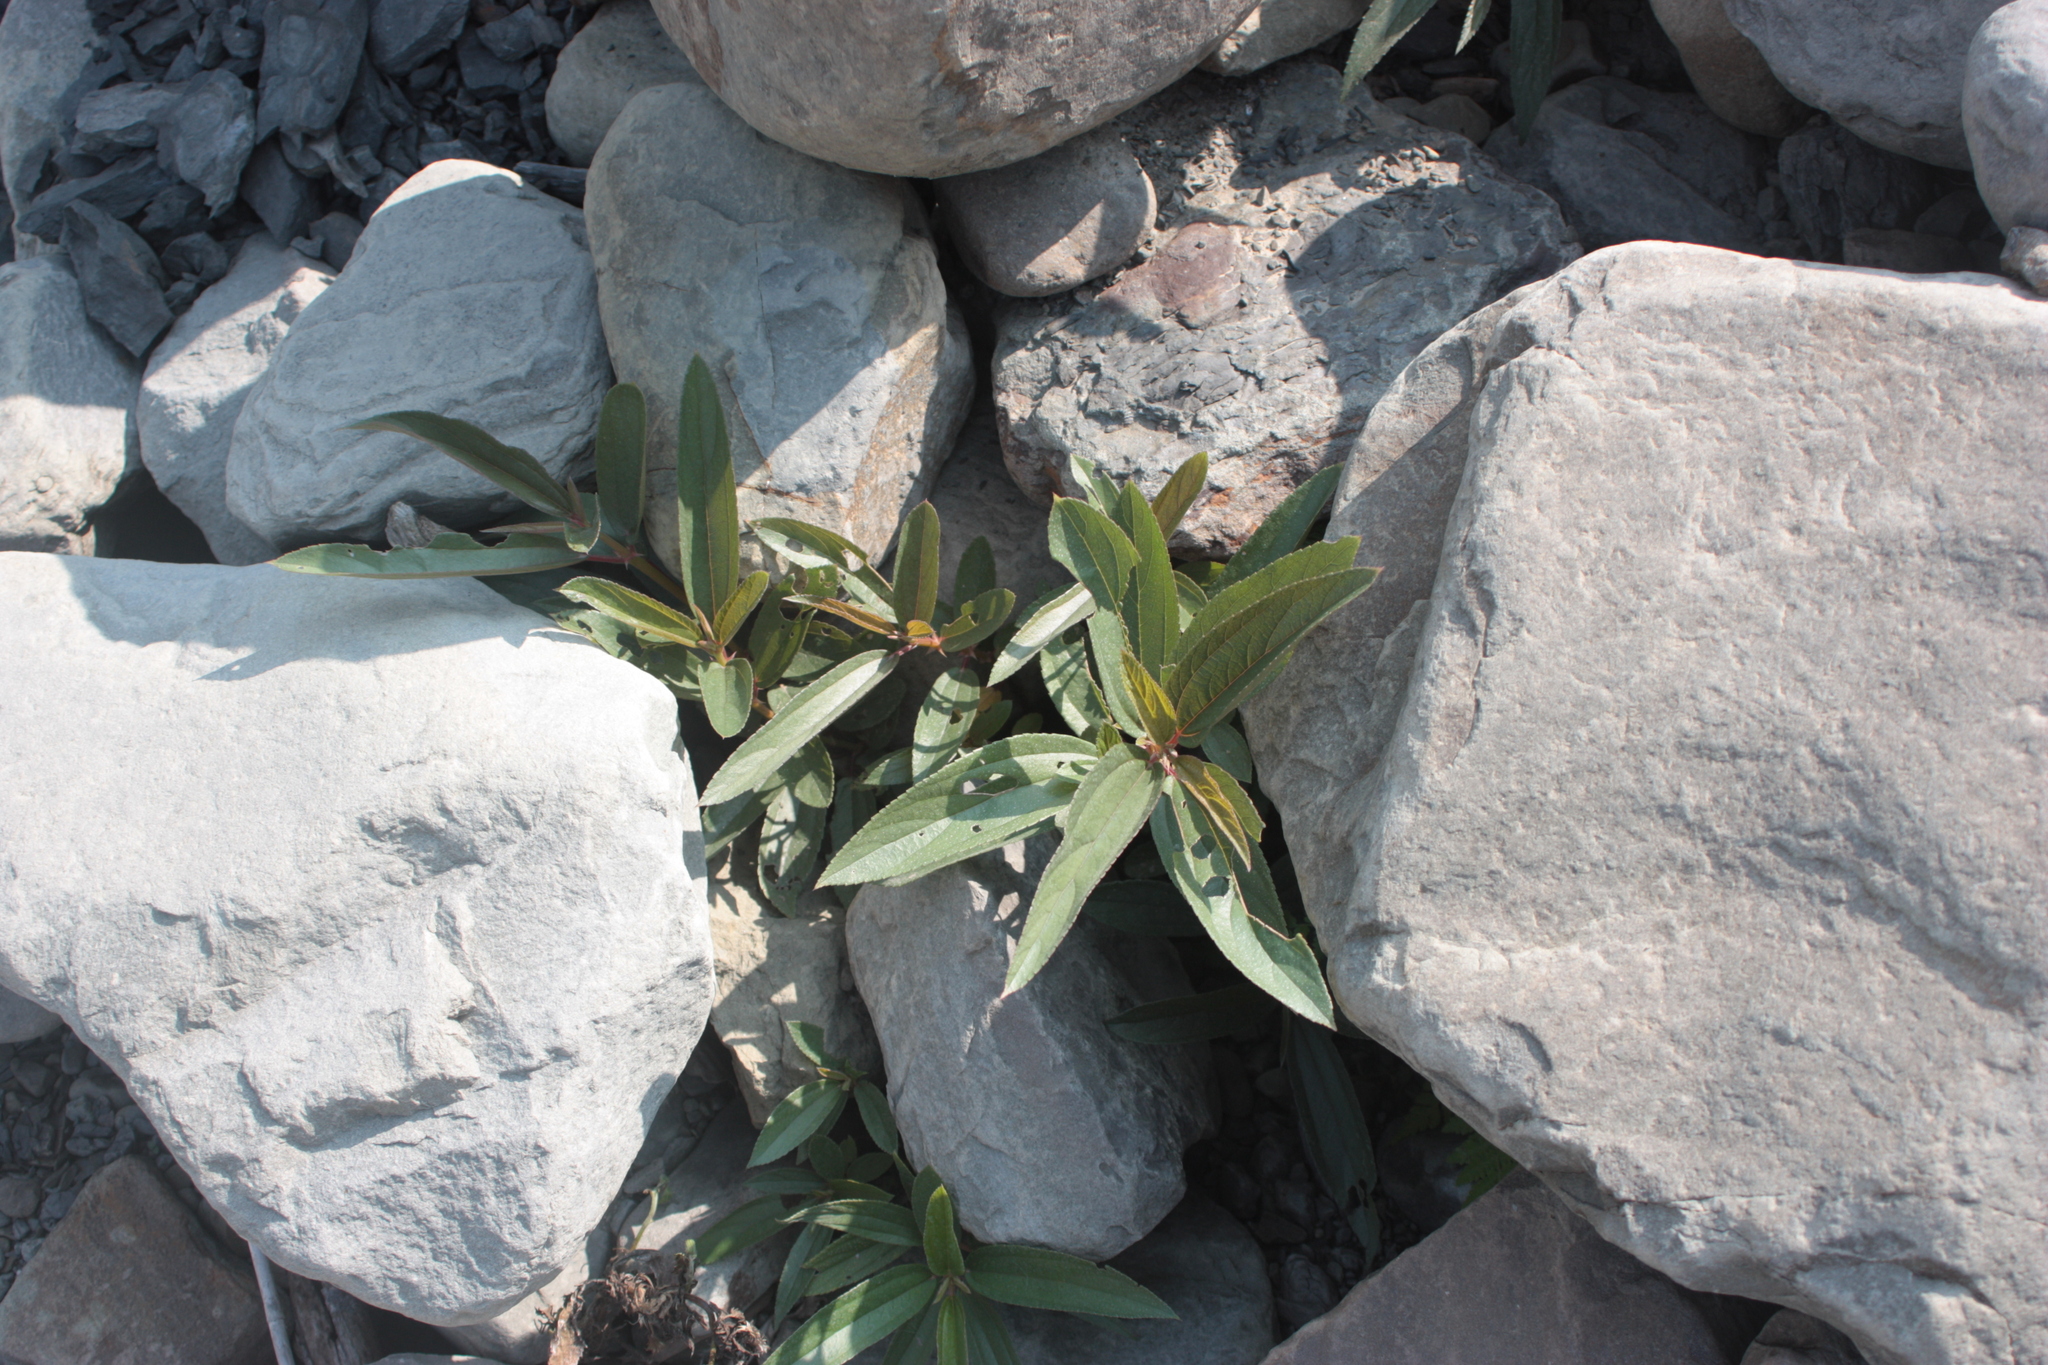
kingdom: Plantae
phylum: Tracheophyta
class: Magnoliopsida
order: Rosales
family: Urticaceae
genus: Boehmeria
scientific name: Boehmeria densiflora
